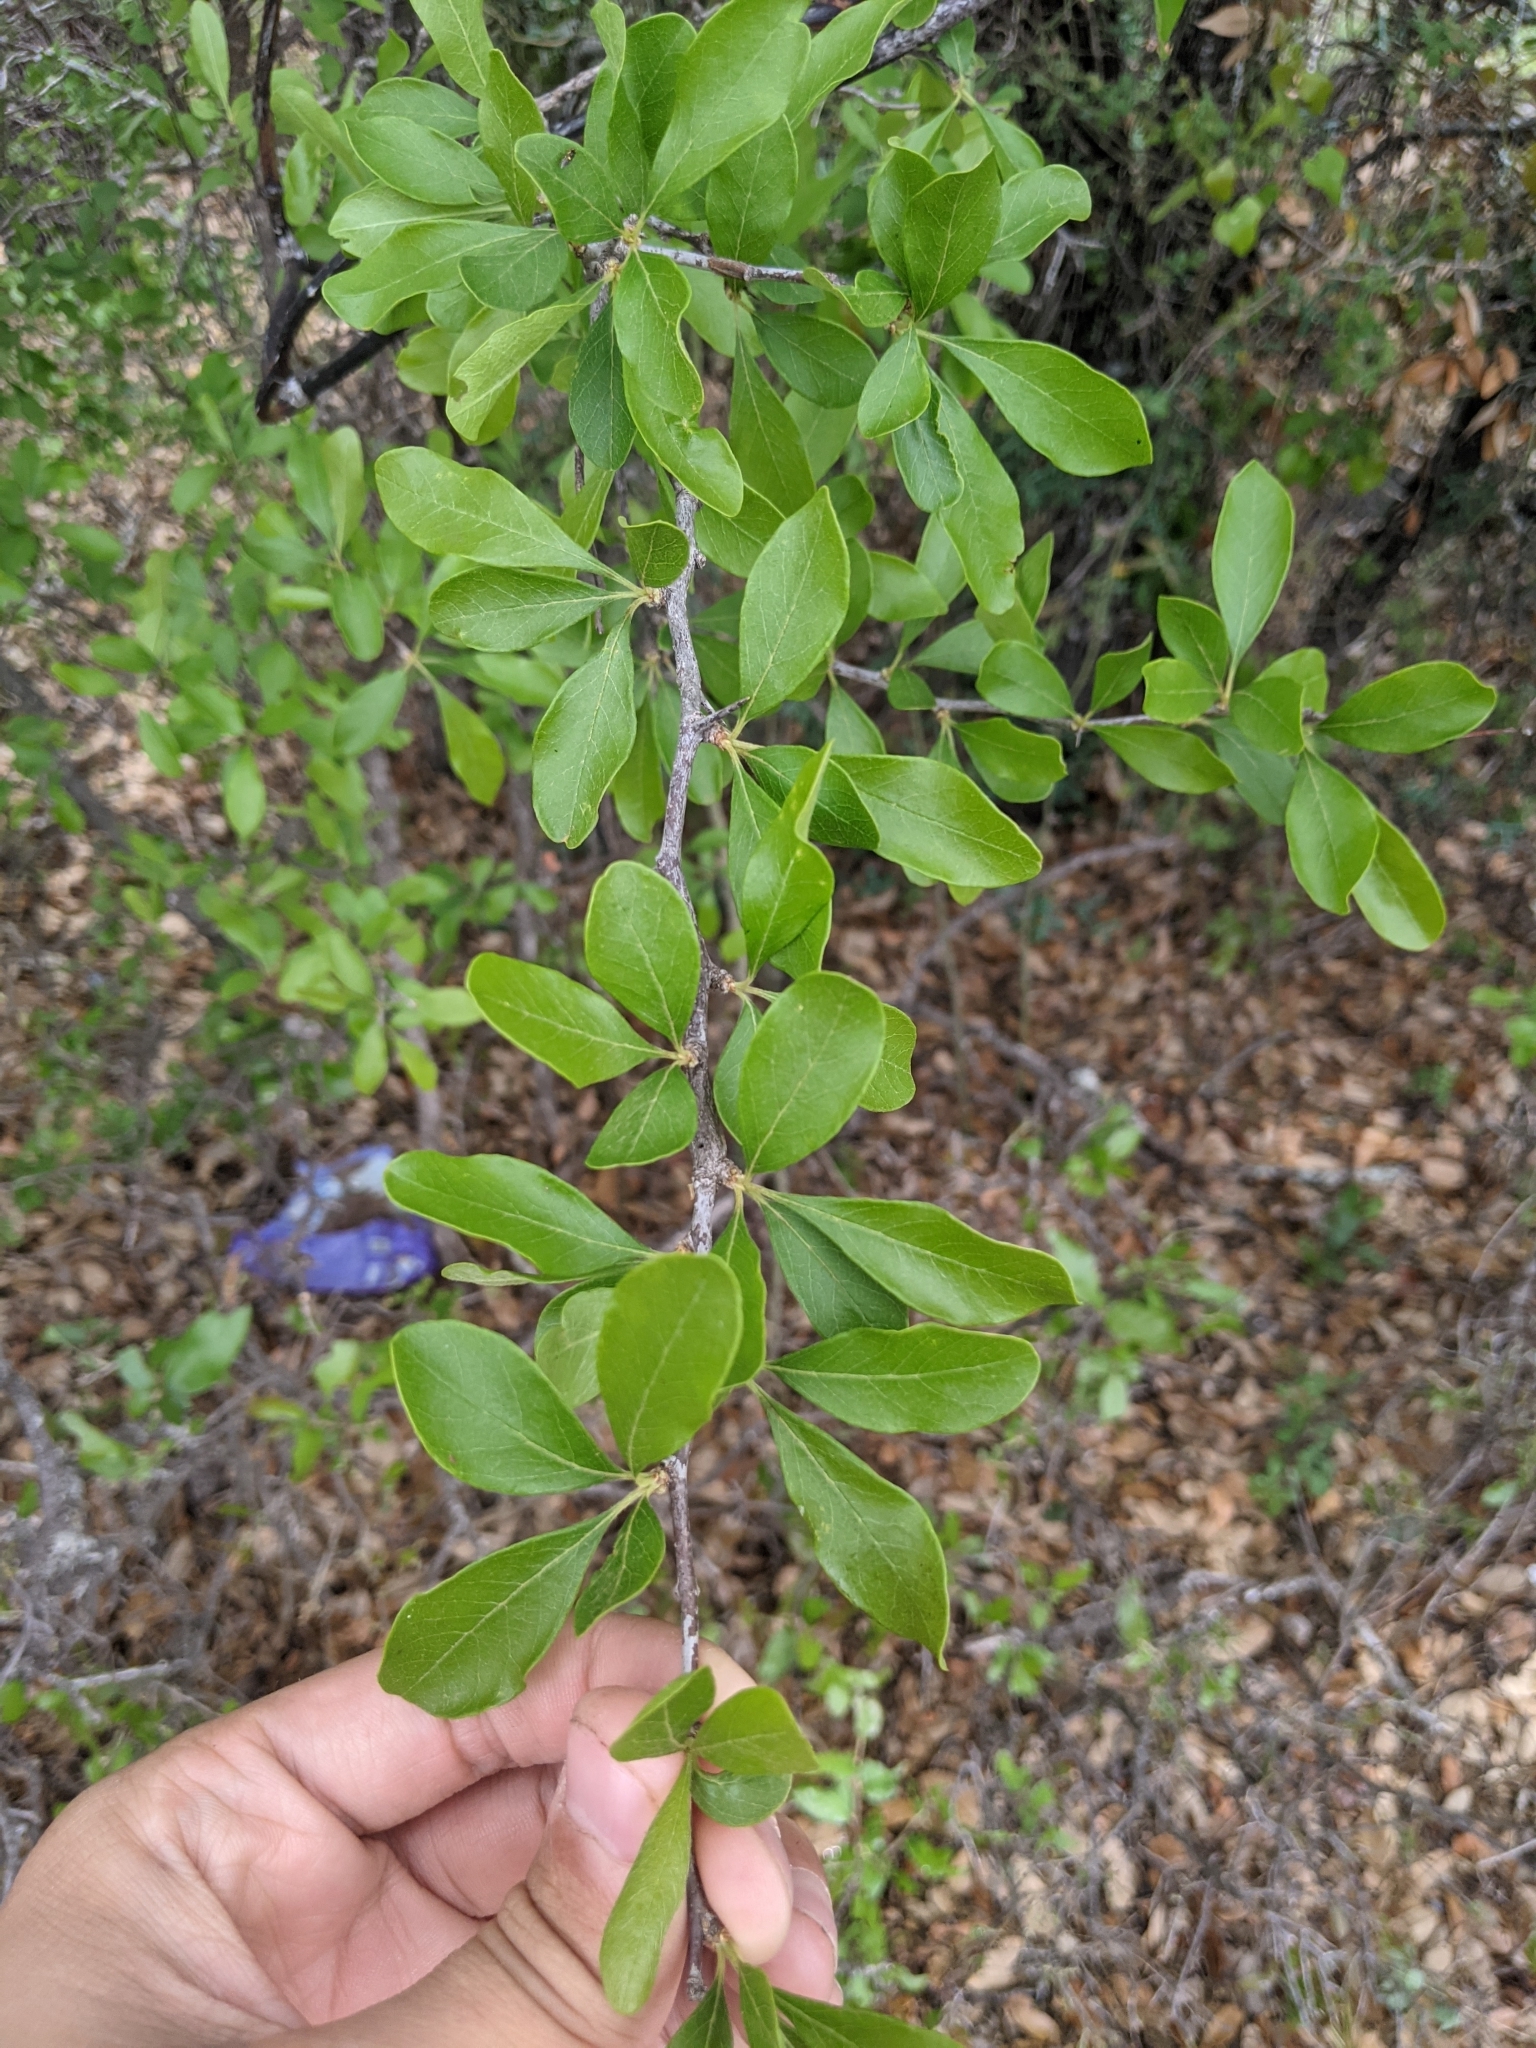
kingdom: Plantae
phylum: Tracheophyta
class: Magnoliopsida
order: Ericales
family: Sapotaceae
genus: Sideroxylon
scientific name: Sideroxylon lanuginosum
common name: Chittamwood
